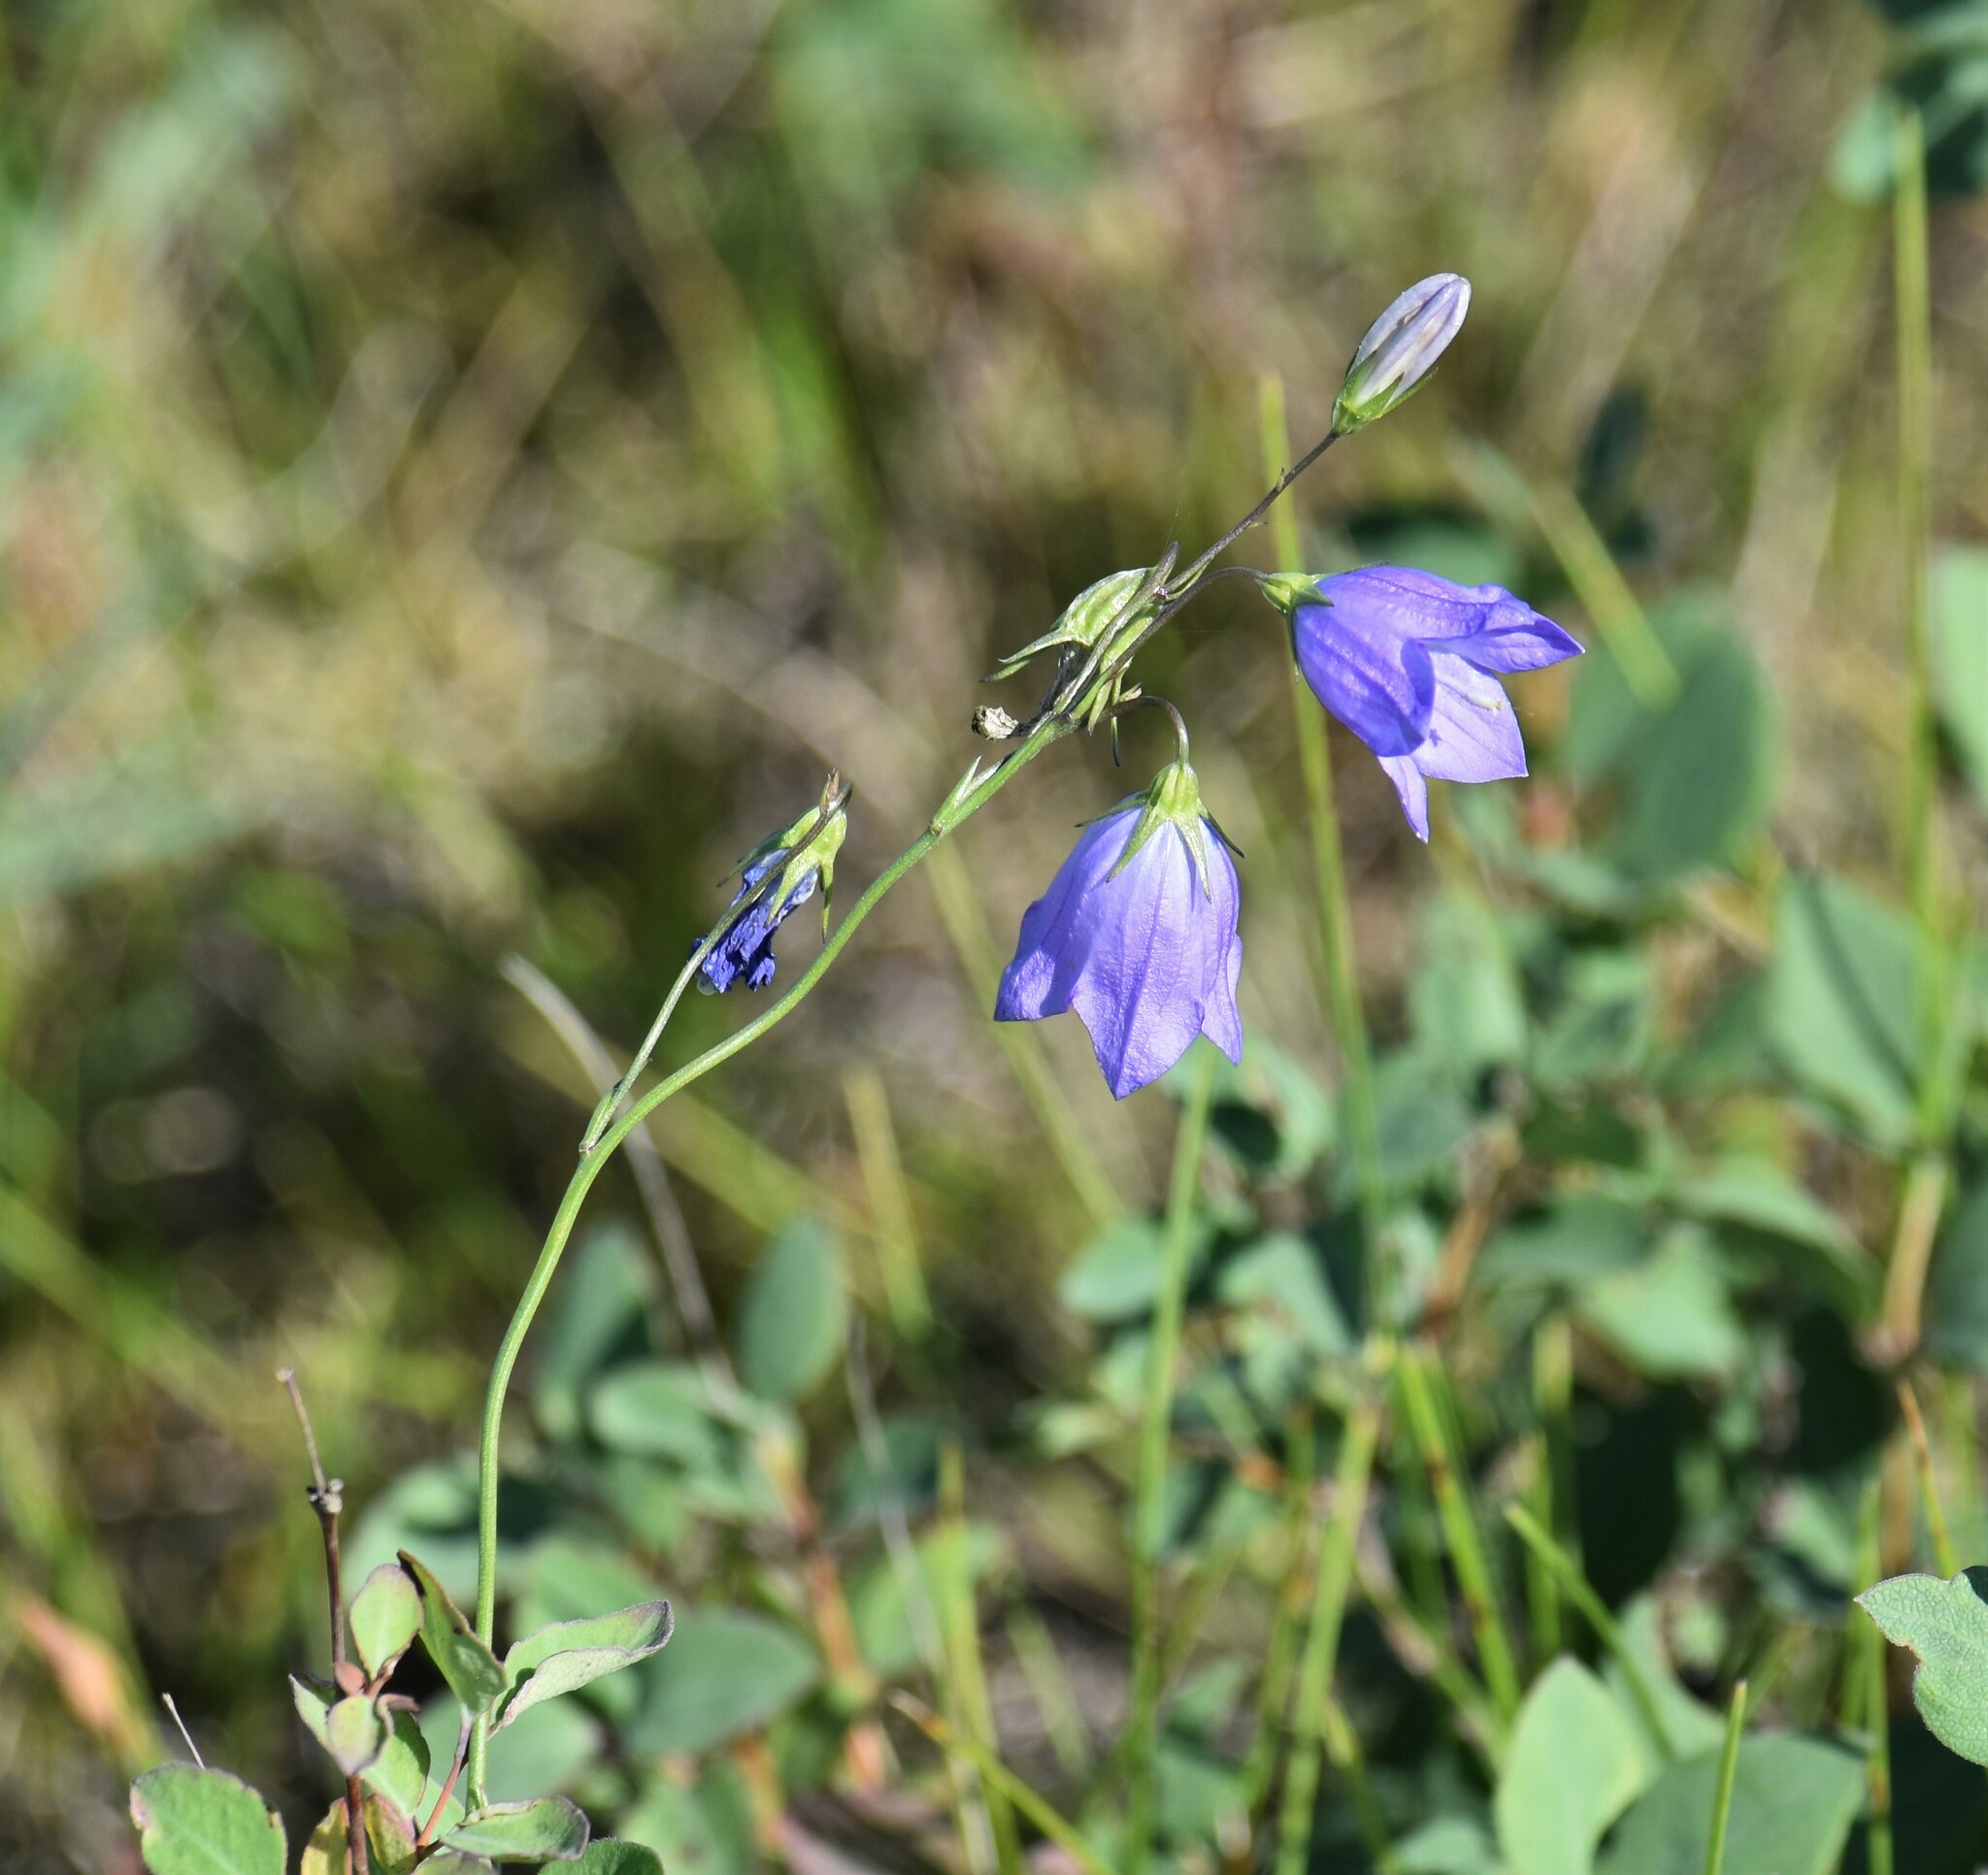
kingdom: Plantae
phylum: Tracheophyta
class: Magnoliopsida
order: Asterales
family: Campanulaceae
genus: Campanula
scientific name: Campanula alaskana
